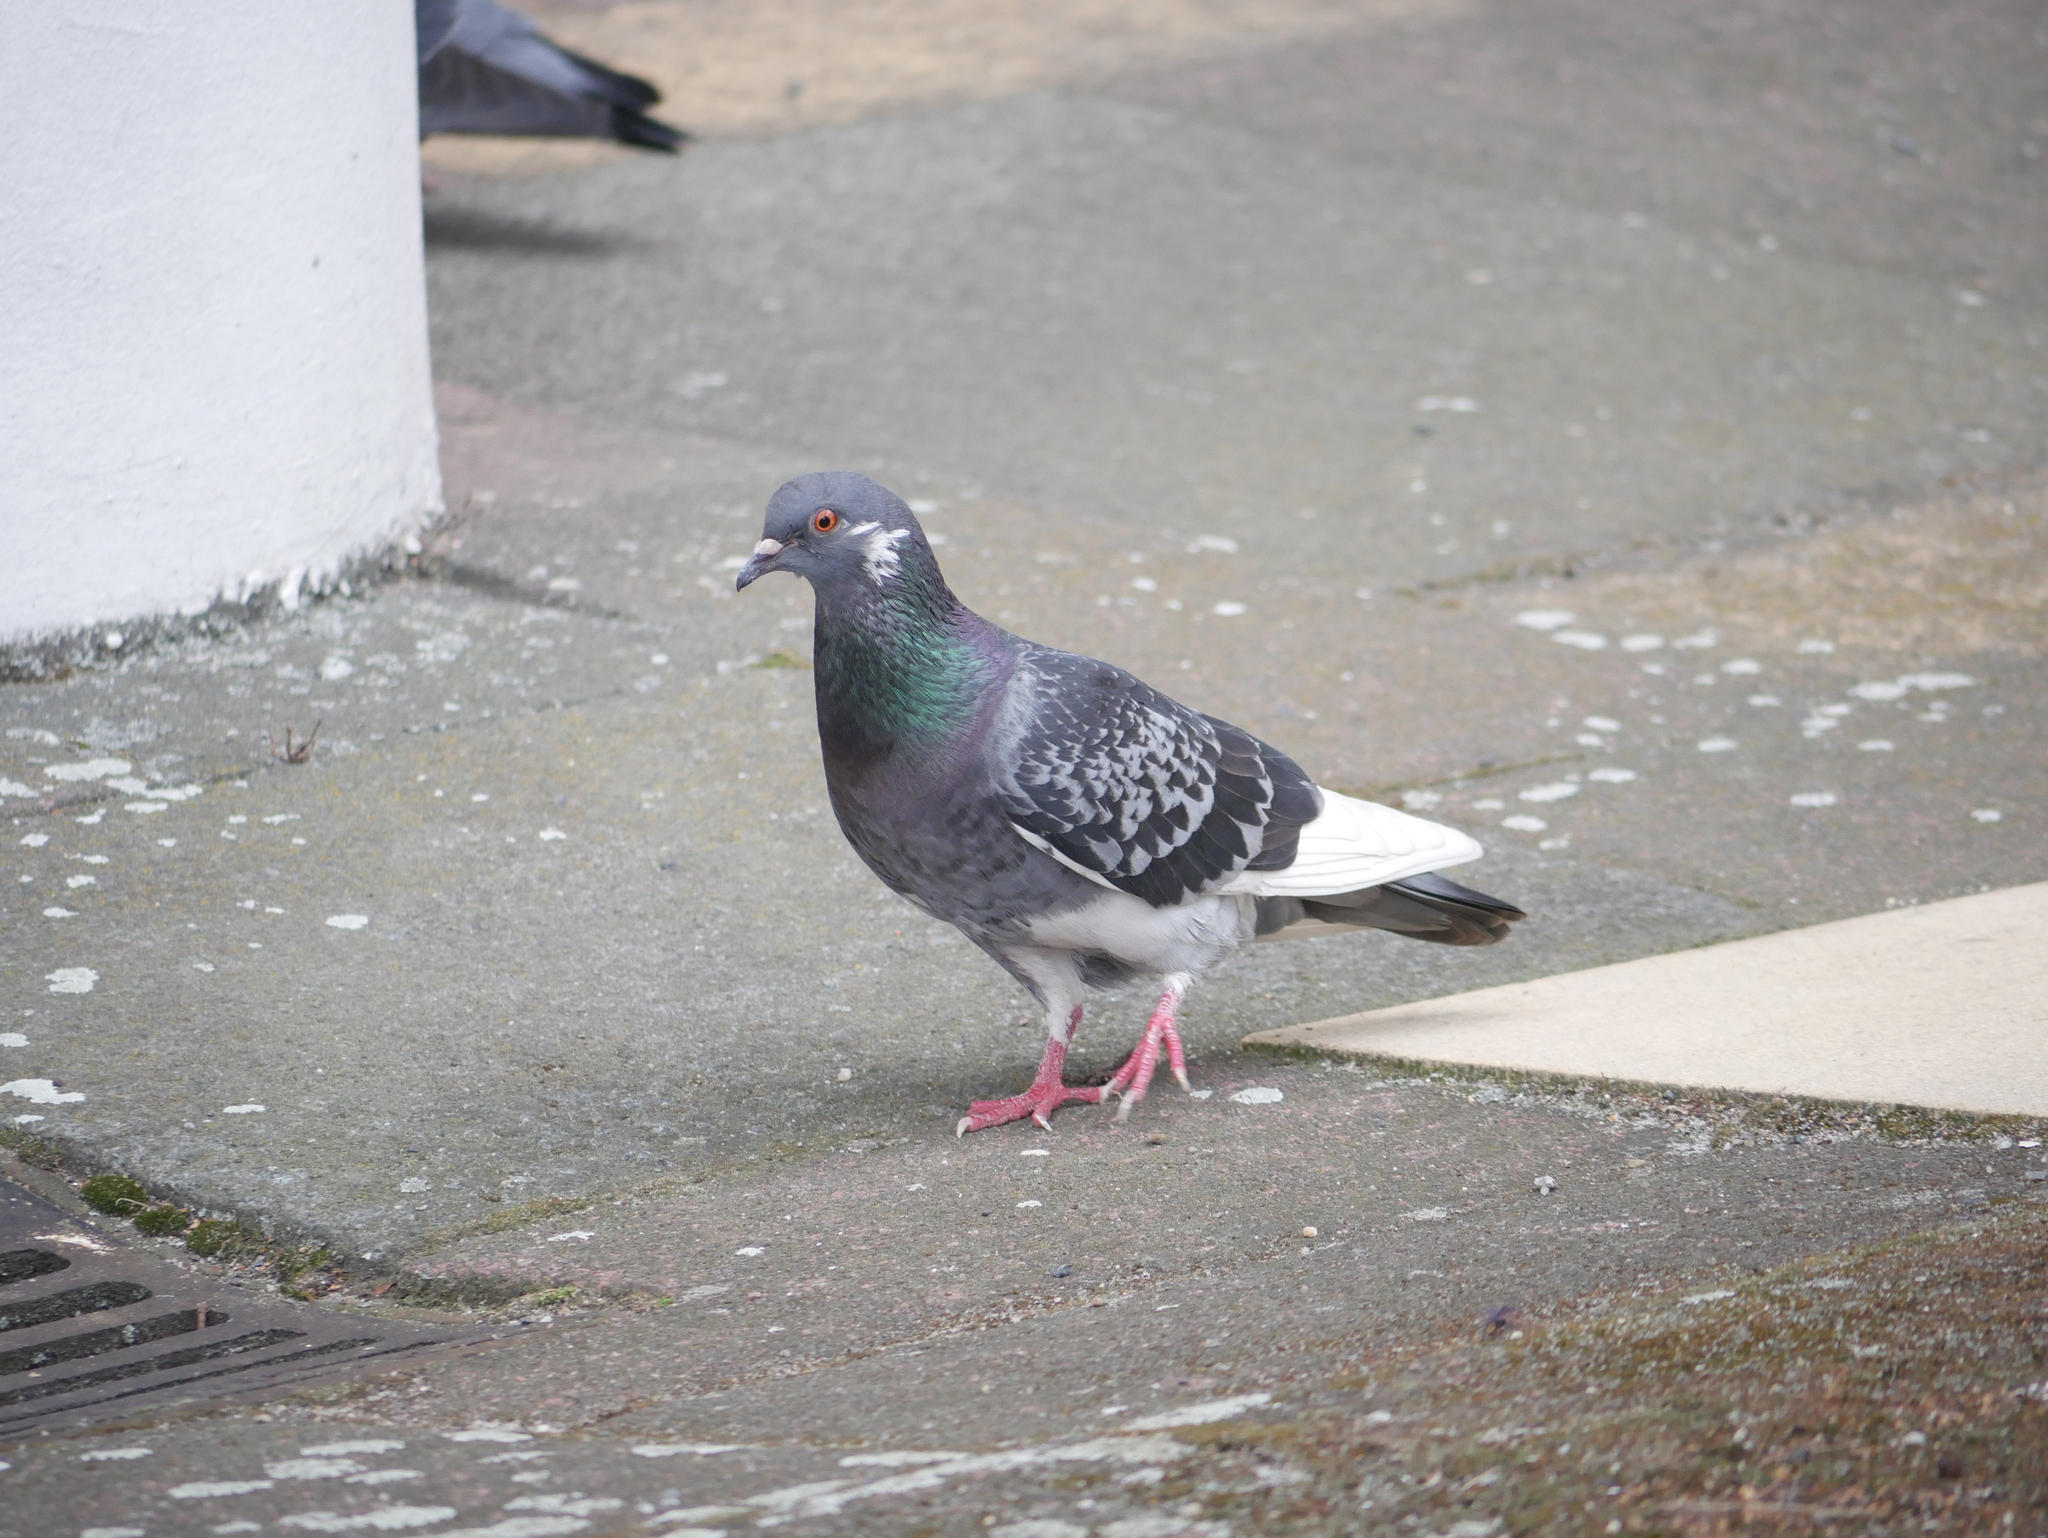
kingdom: Animalia
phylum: Chordata
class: Aves
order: Columbiformes
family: Columbidae
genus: Columba
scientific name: Columba livia
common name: Rock pigeon
